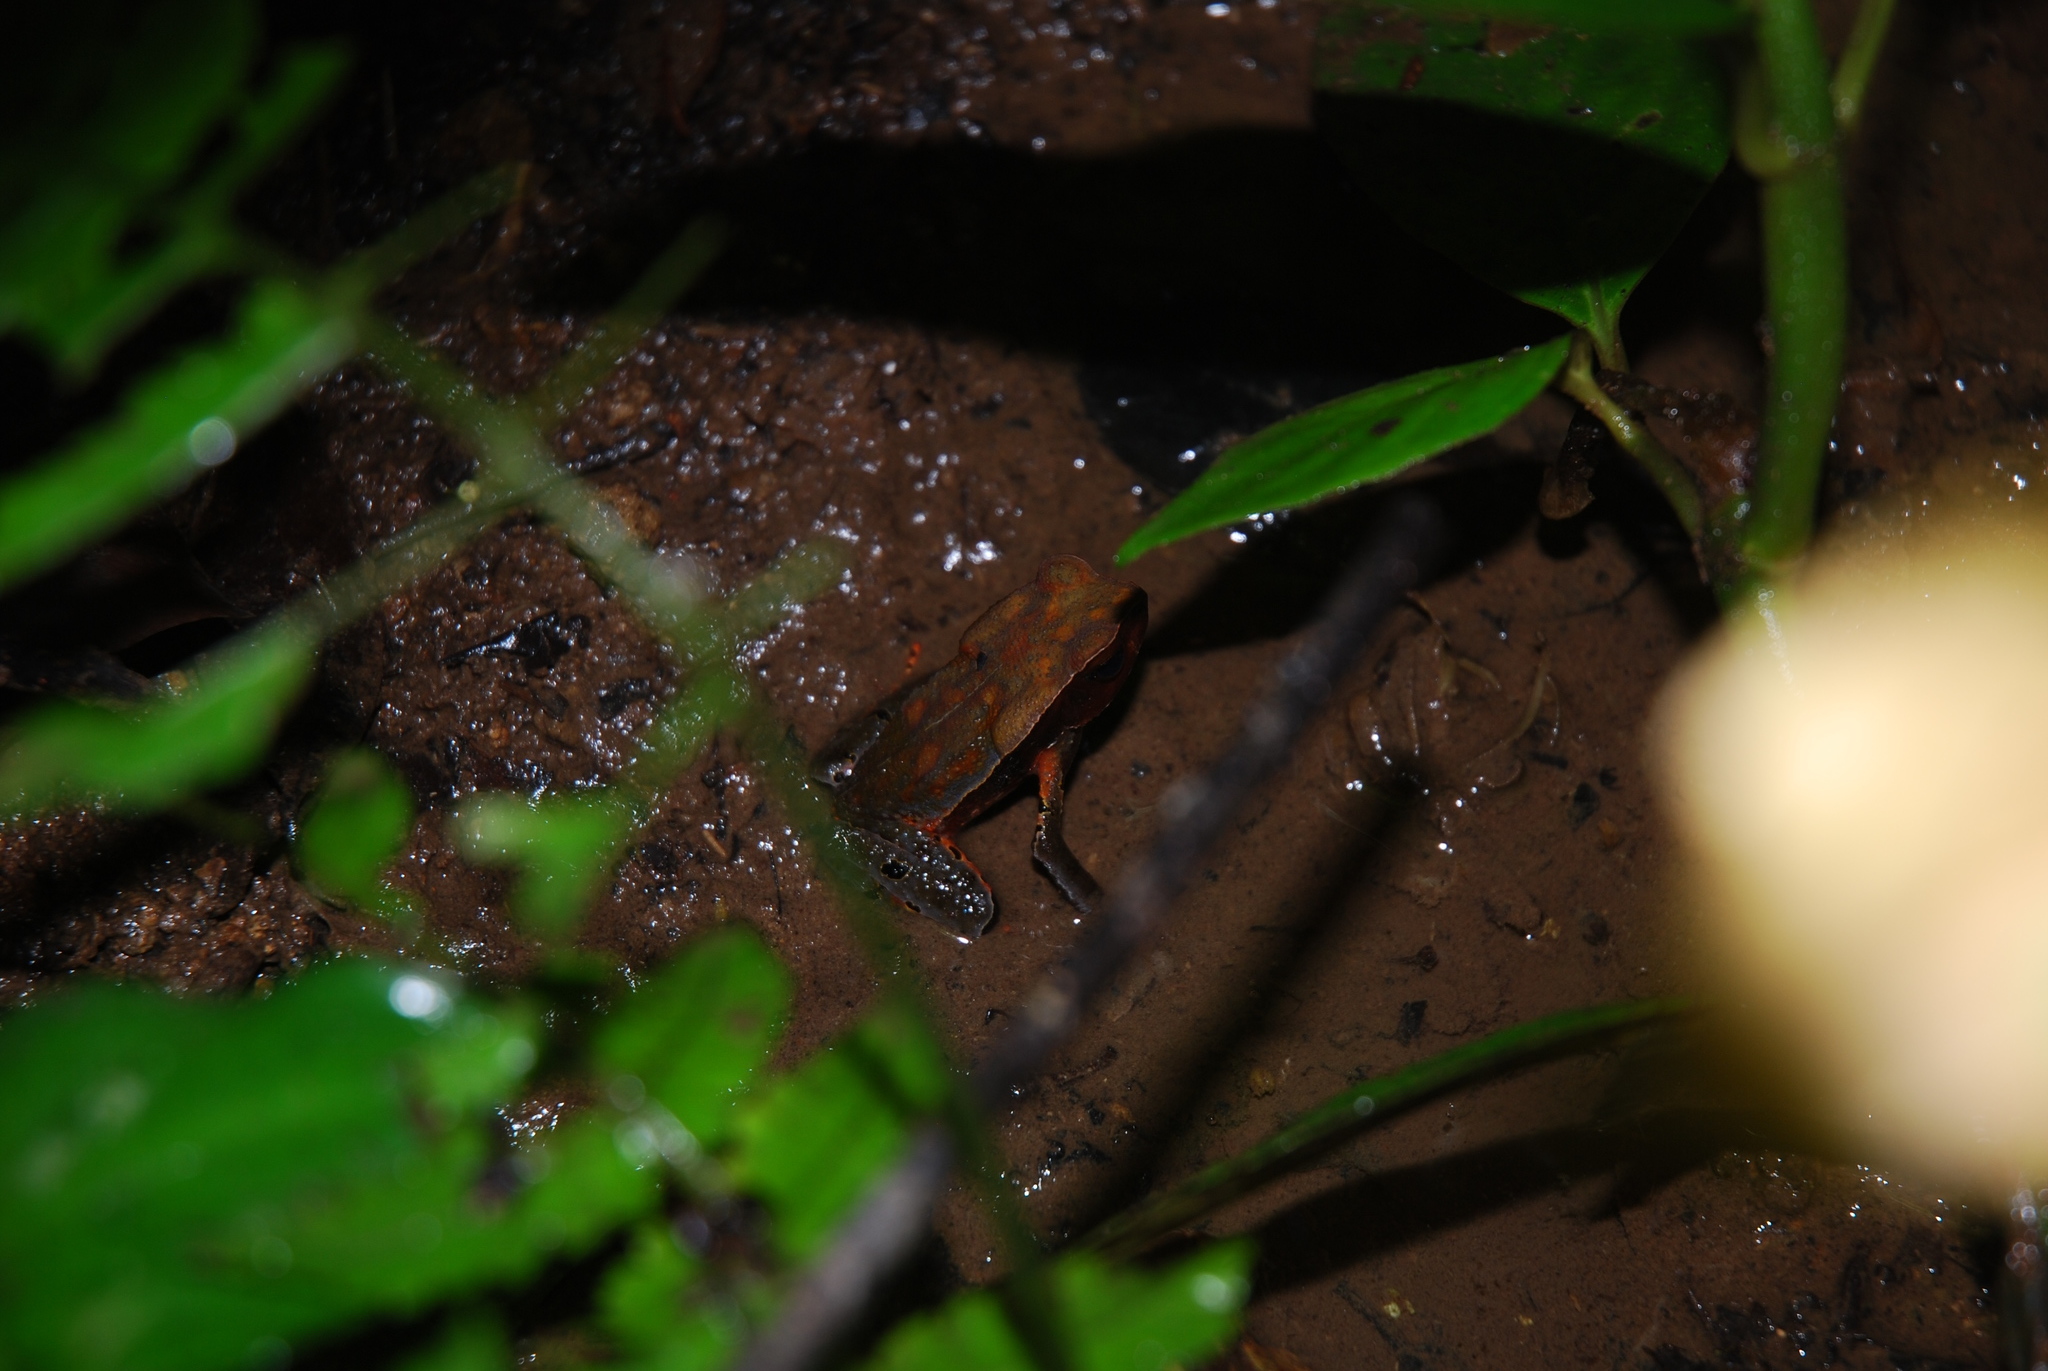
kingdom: Animalia
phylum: Chordata
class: Amphibia
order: Anura
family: Bufonidae
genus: Rhaebo
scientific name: Rhaebo haematiticus
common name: Truando toad
